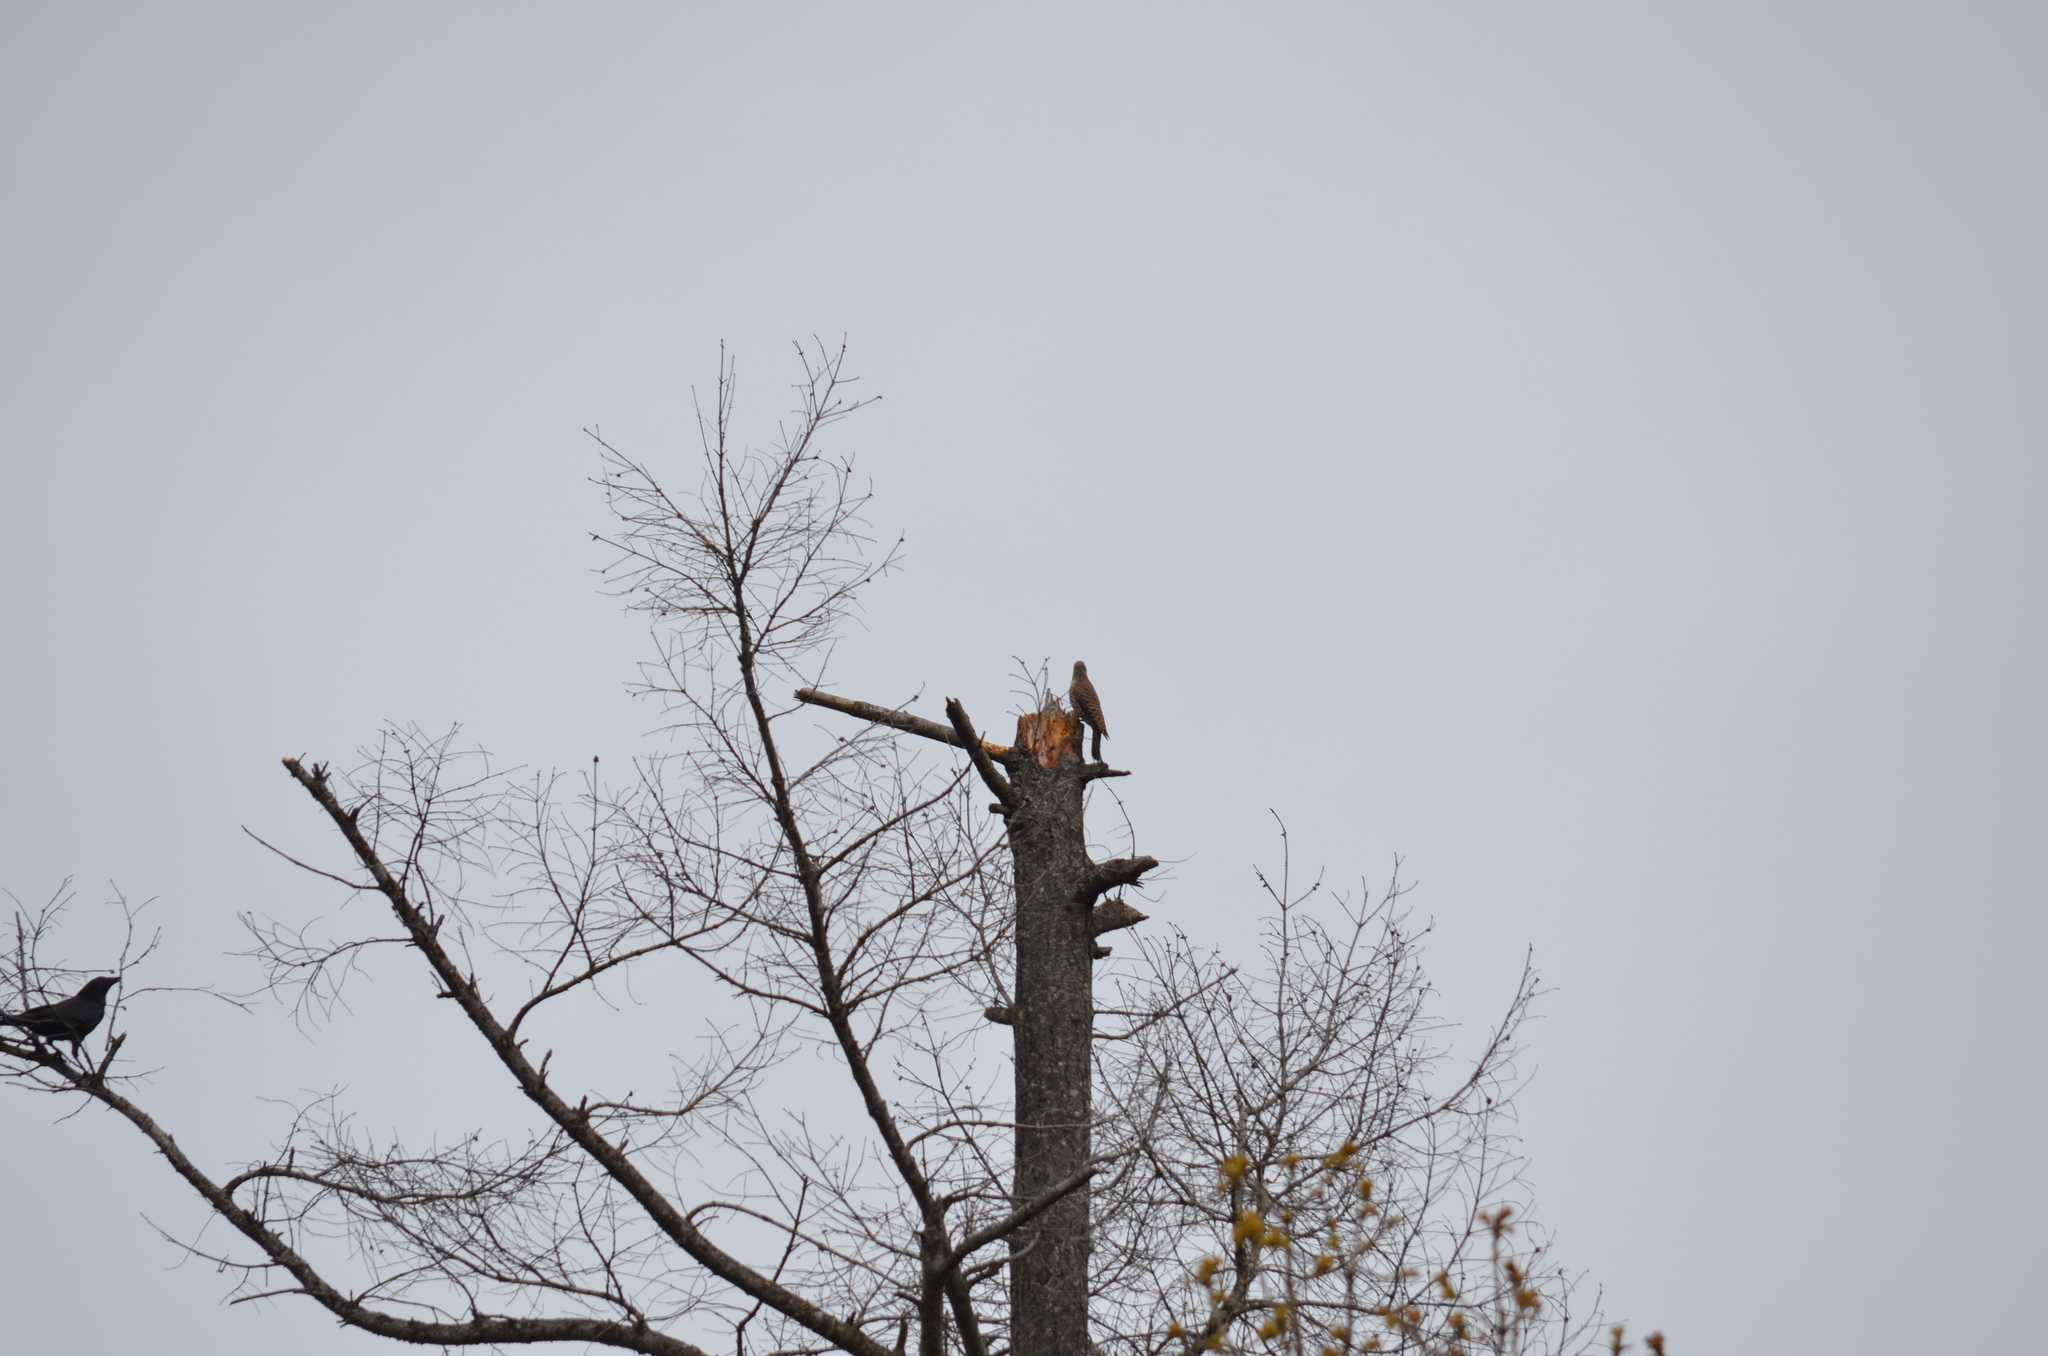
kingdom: Animalia
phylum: Chordata
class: Aves
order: Piciformes
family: Picidae
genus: Colaptes
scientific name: Colaptes auratus
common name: Northern flicker
